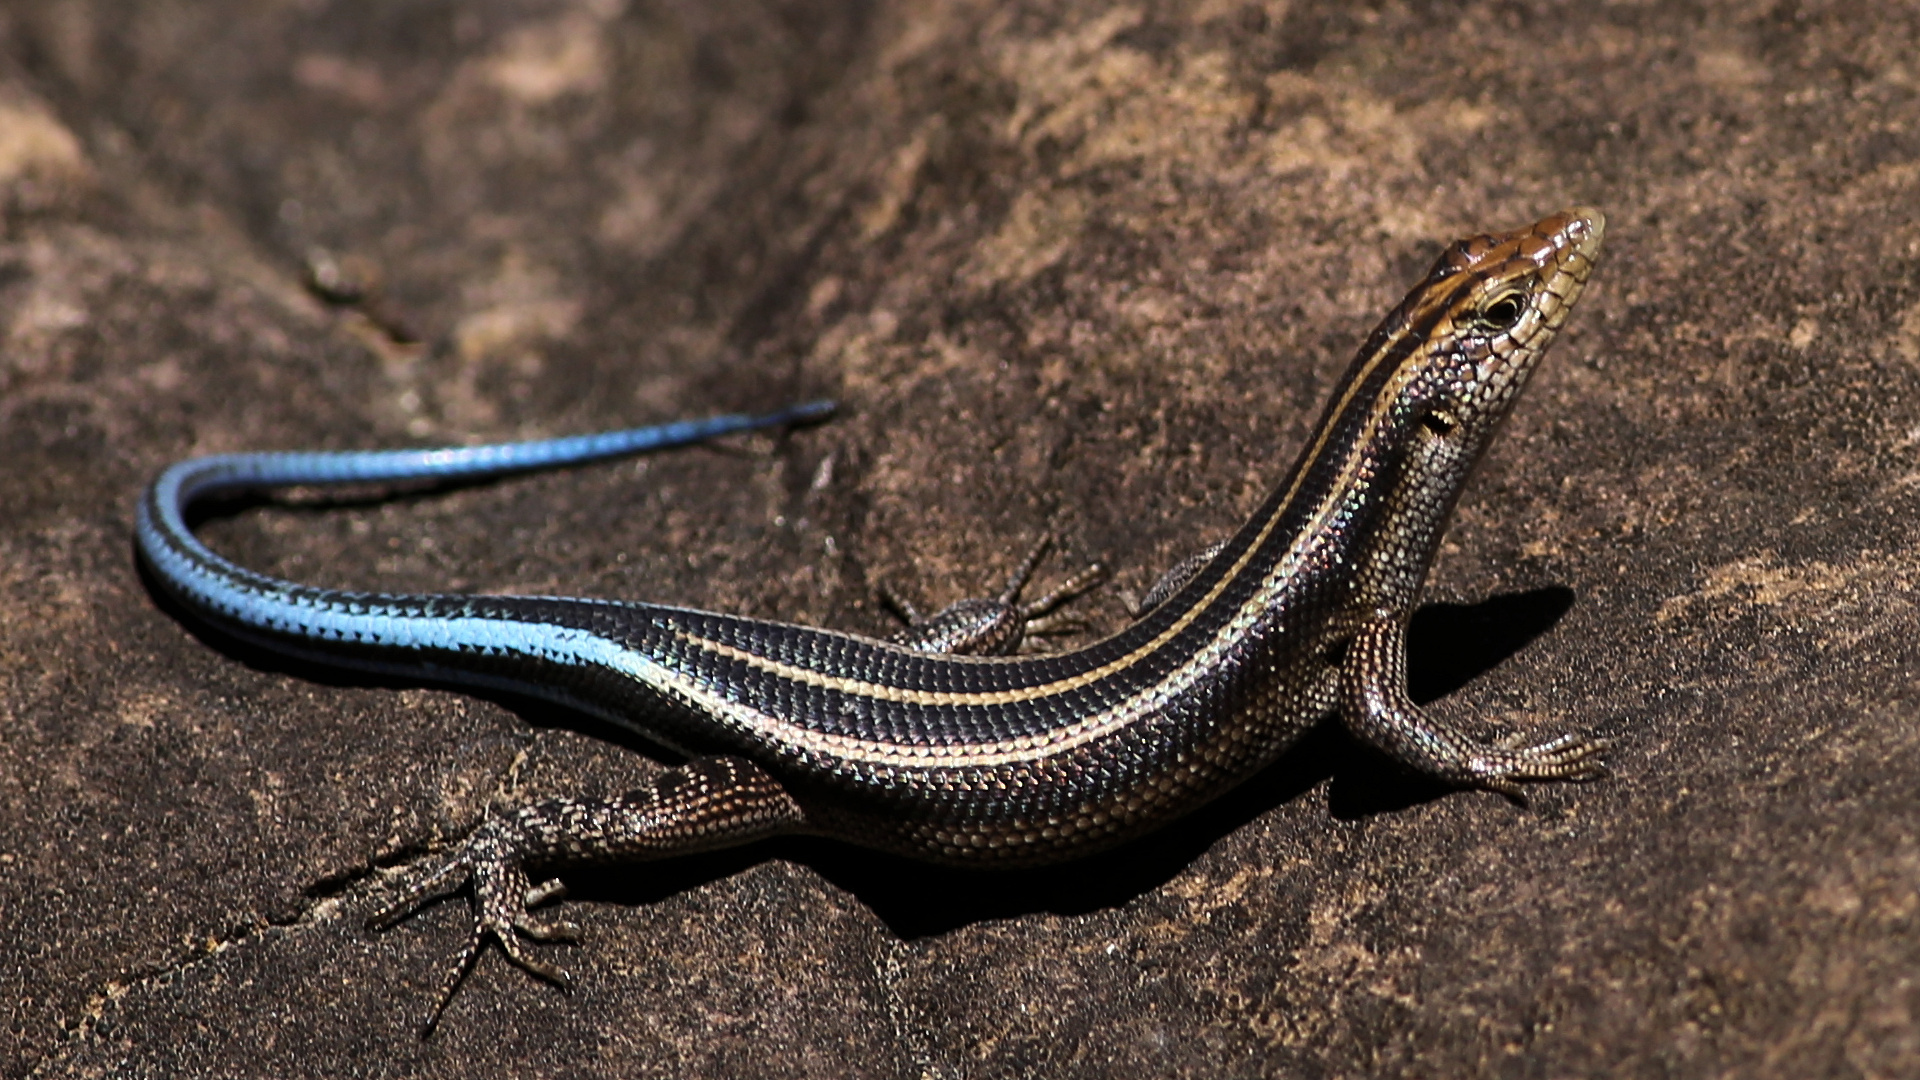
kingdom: Animalia
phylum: Chordata
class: Squamata
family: Scincidae
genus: Trachylepis
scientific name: Trachylepis margaritifera
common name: Rainbow skink
